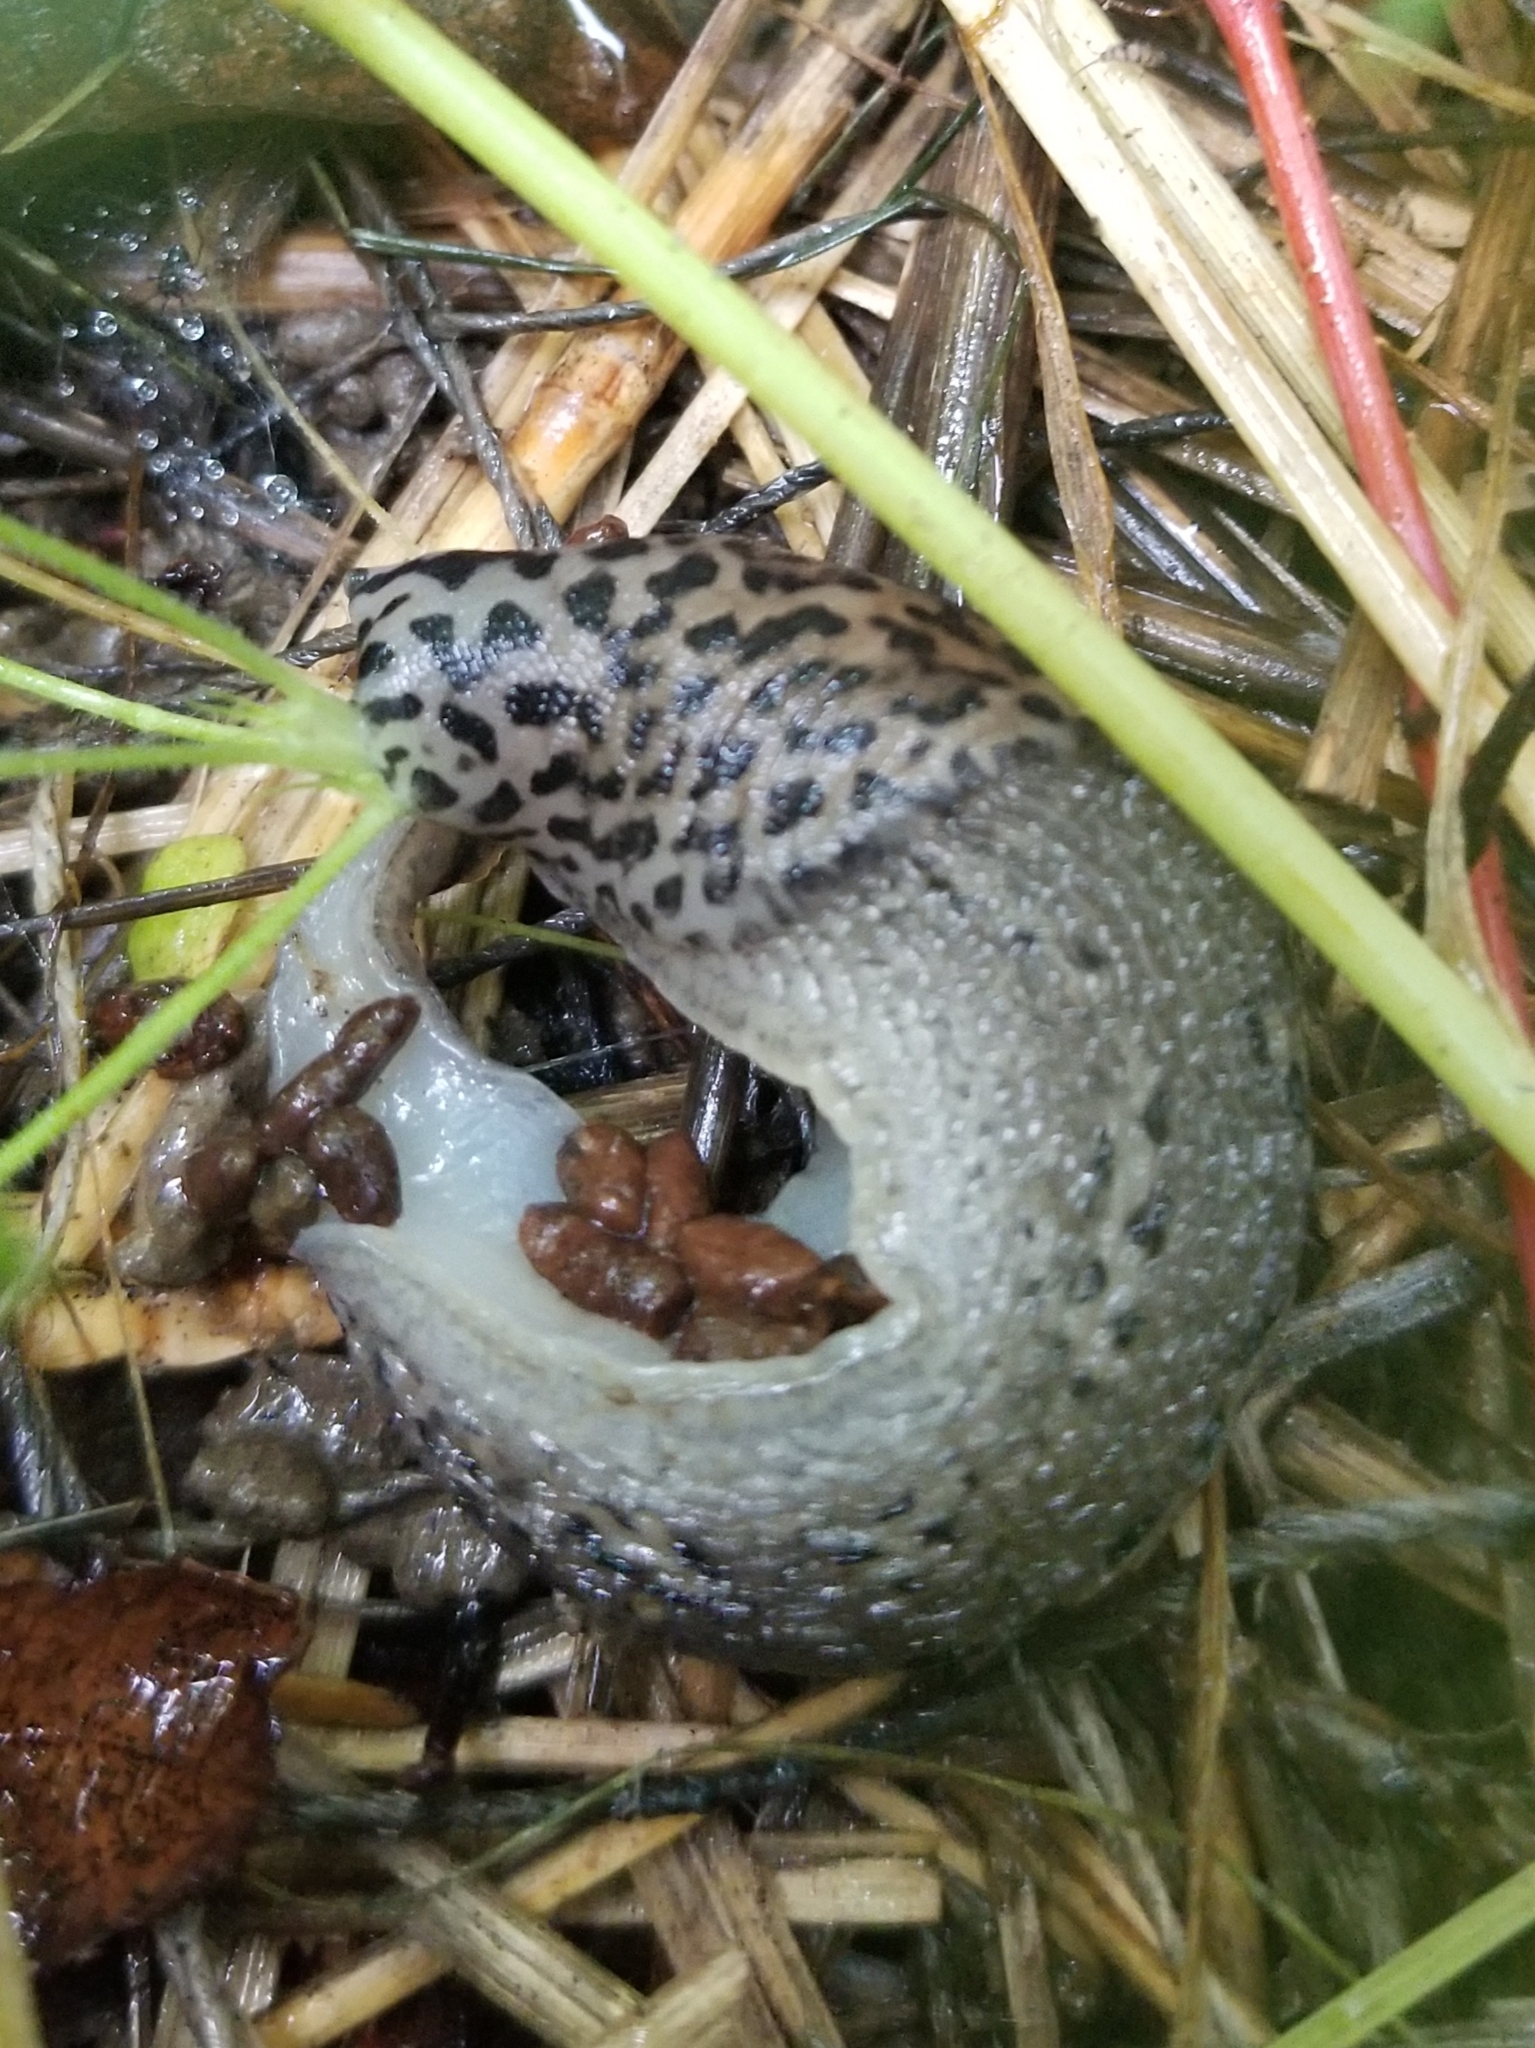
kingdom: Animalia
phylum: Mollusca
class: Gastropoda
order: Stylommatophora
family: Limacidae
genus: Limax
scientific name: Limax maximus
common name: Great grey slug
